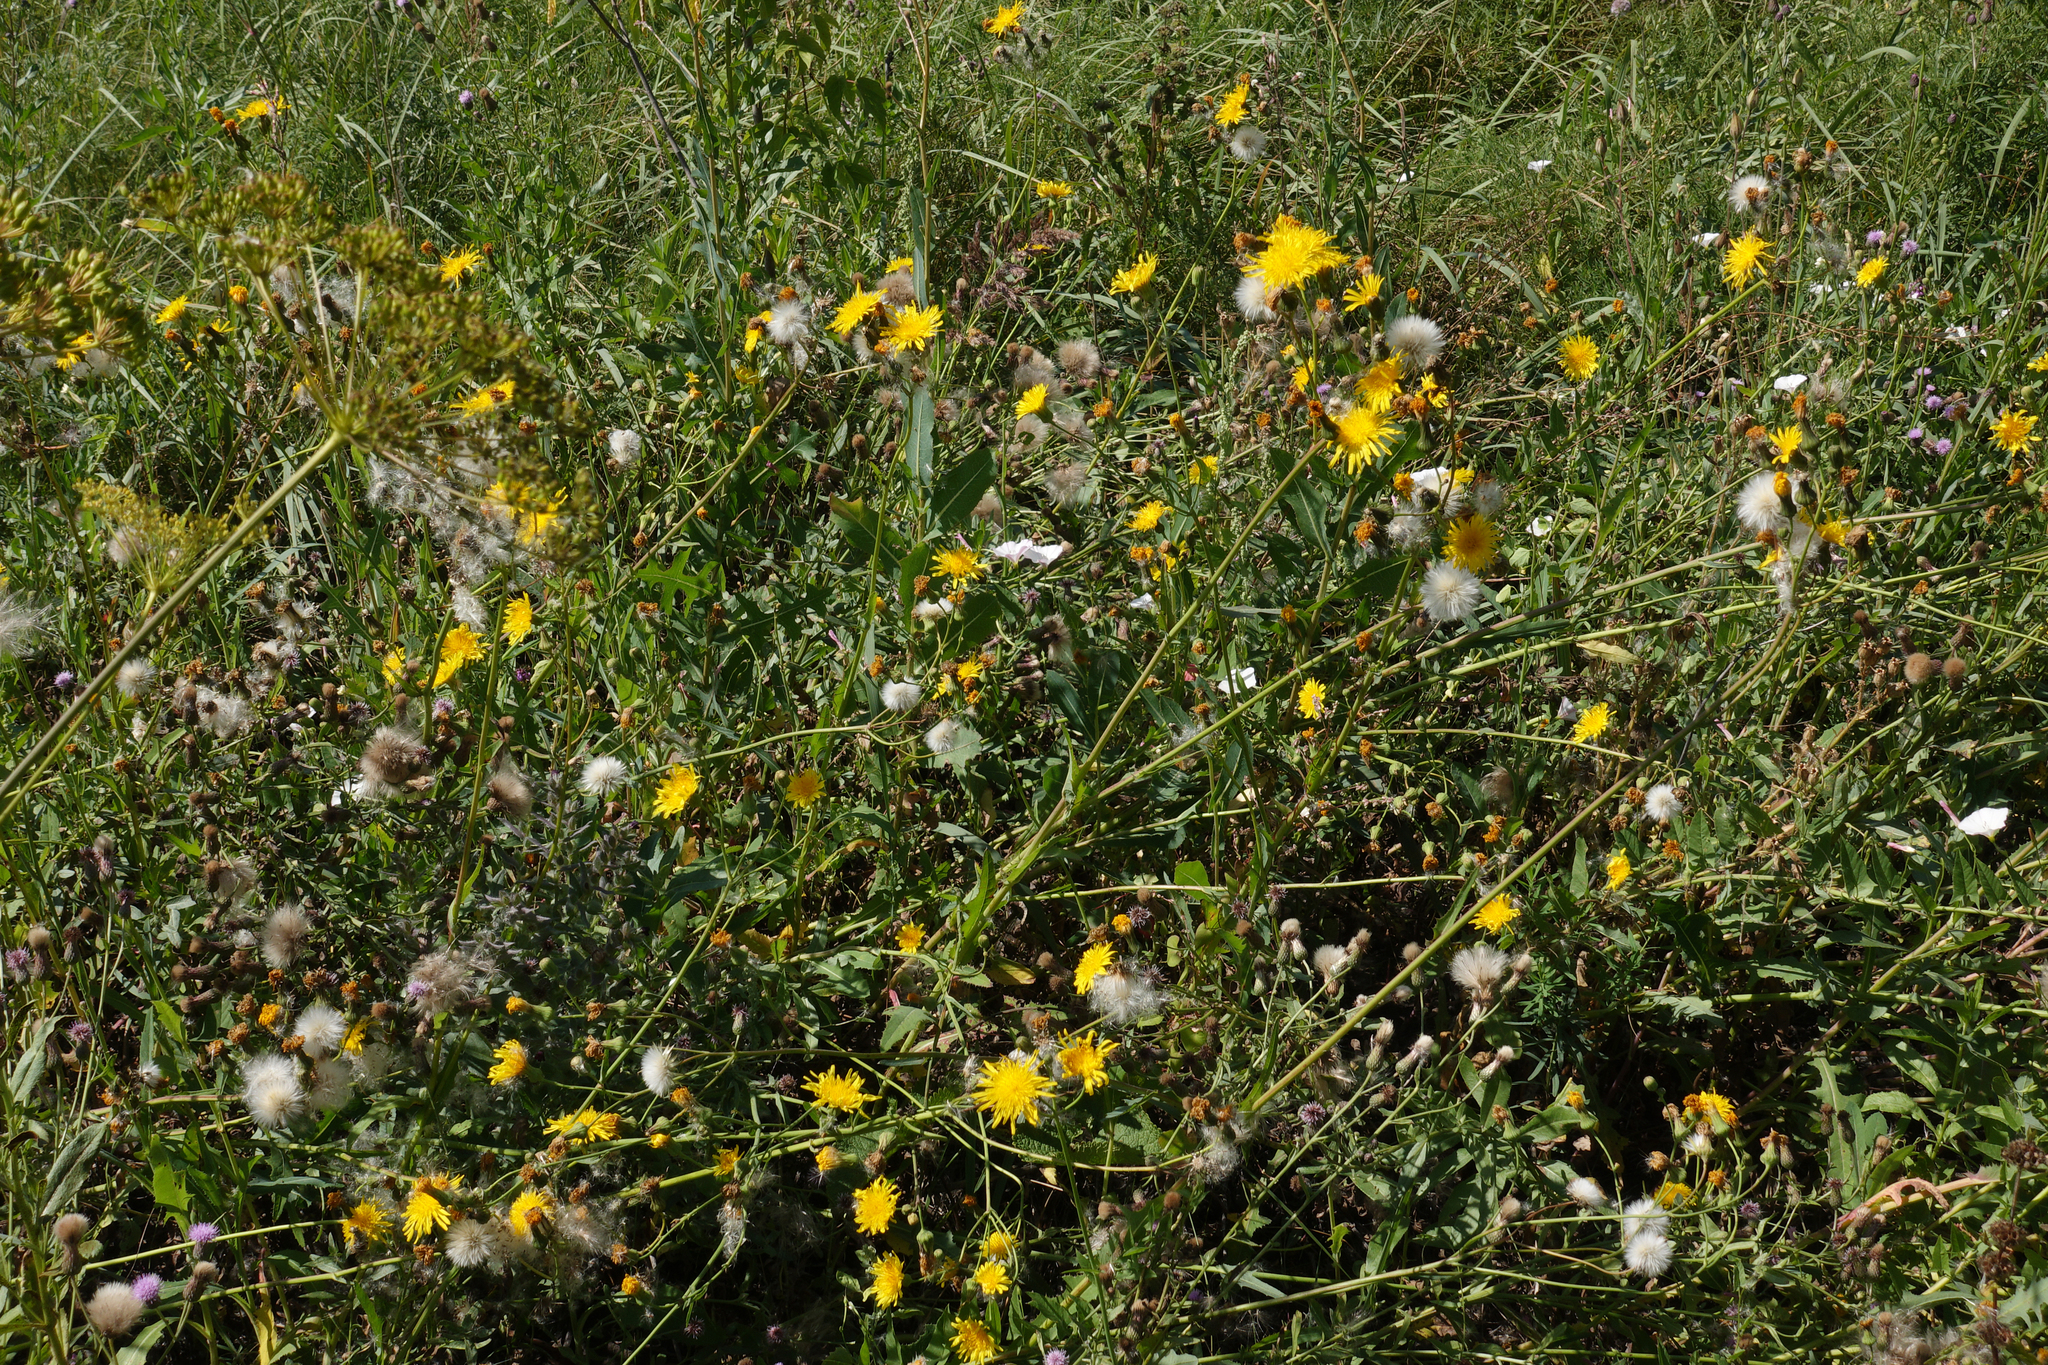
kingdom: Plantae
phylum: Tracheophyta
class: Magnoliopsida
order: Asterales
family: Asteraceae
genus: Sonchus
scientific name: Sonchus arvensis
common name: Perennial sow-thistle
